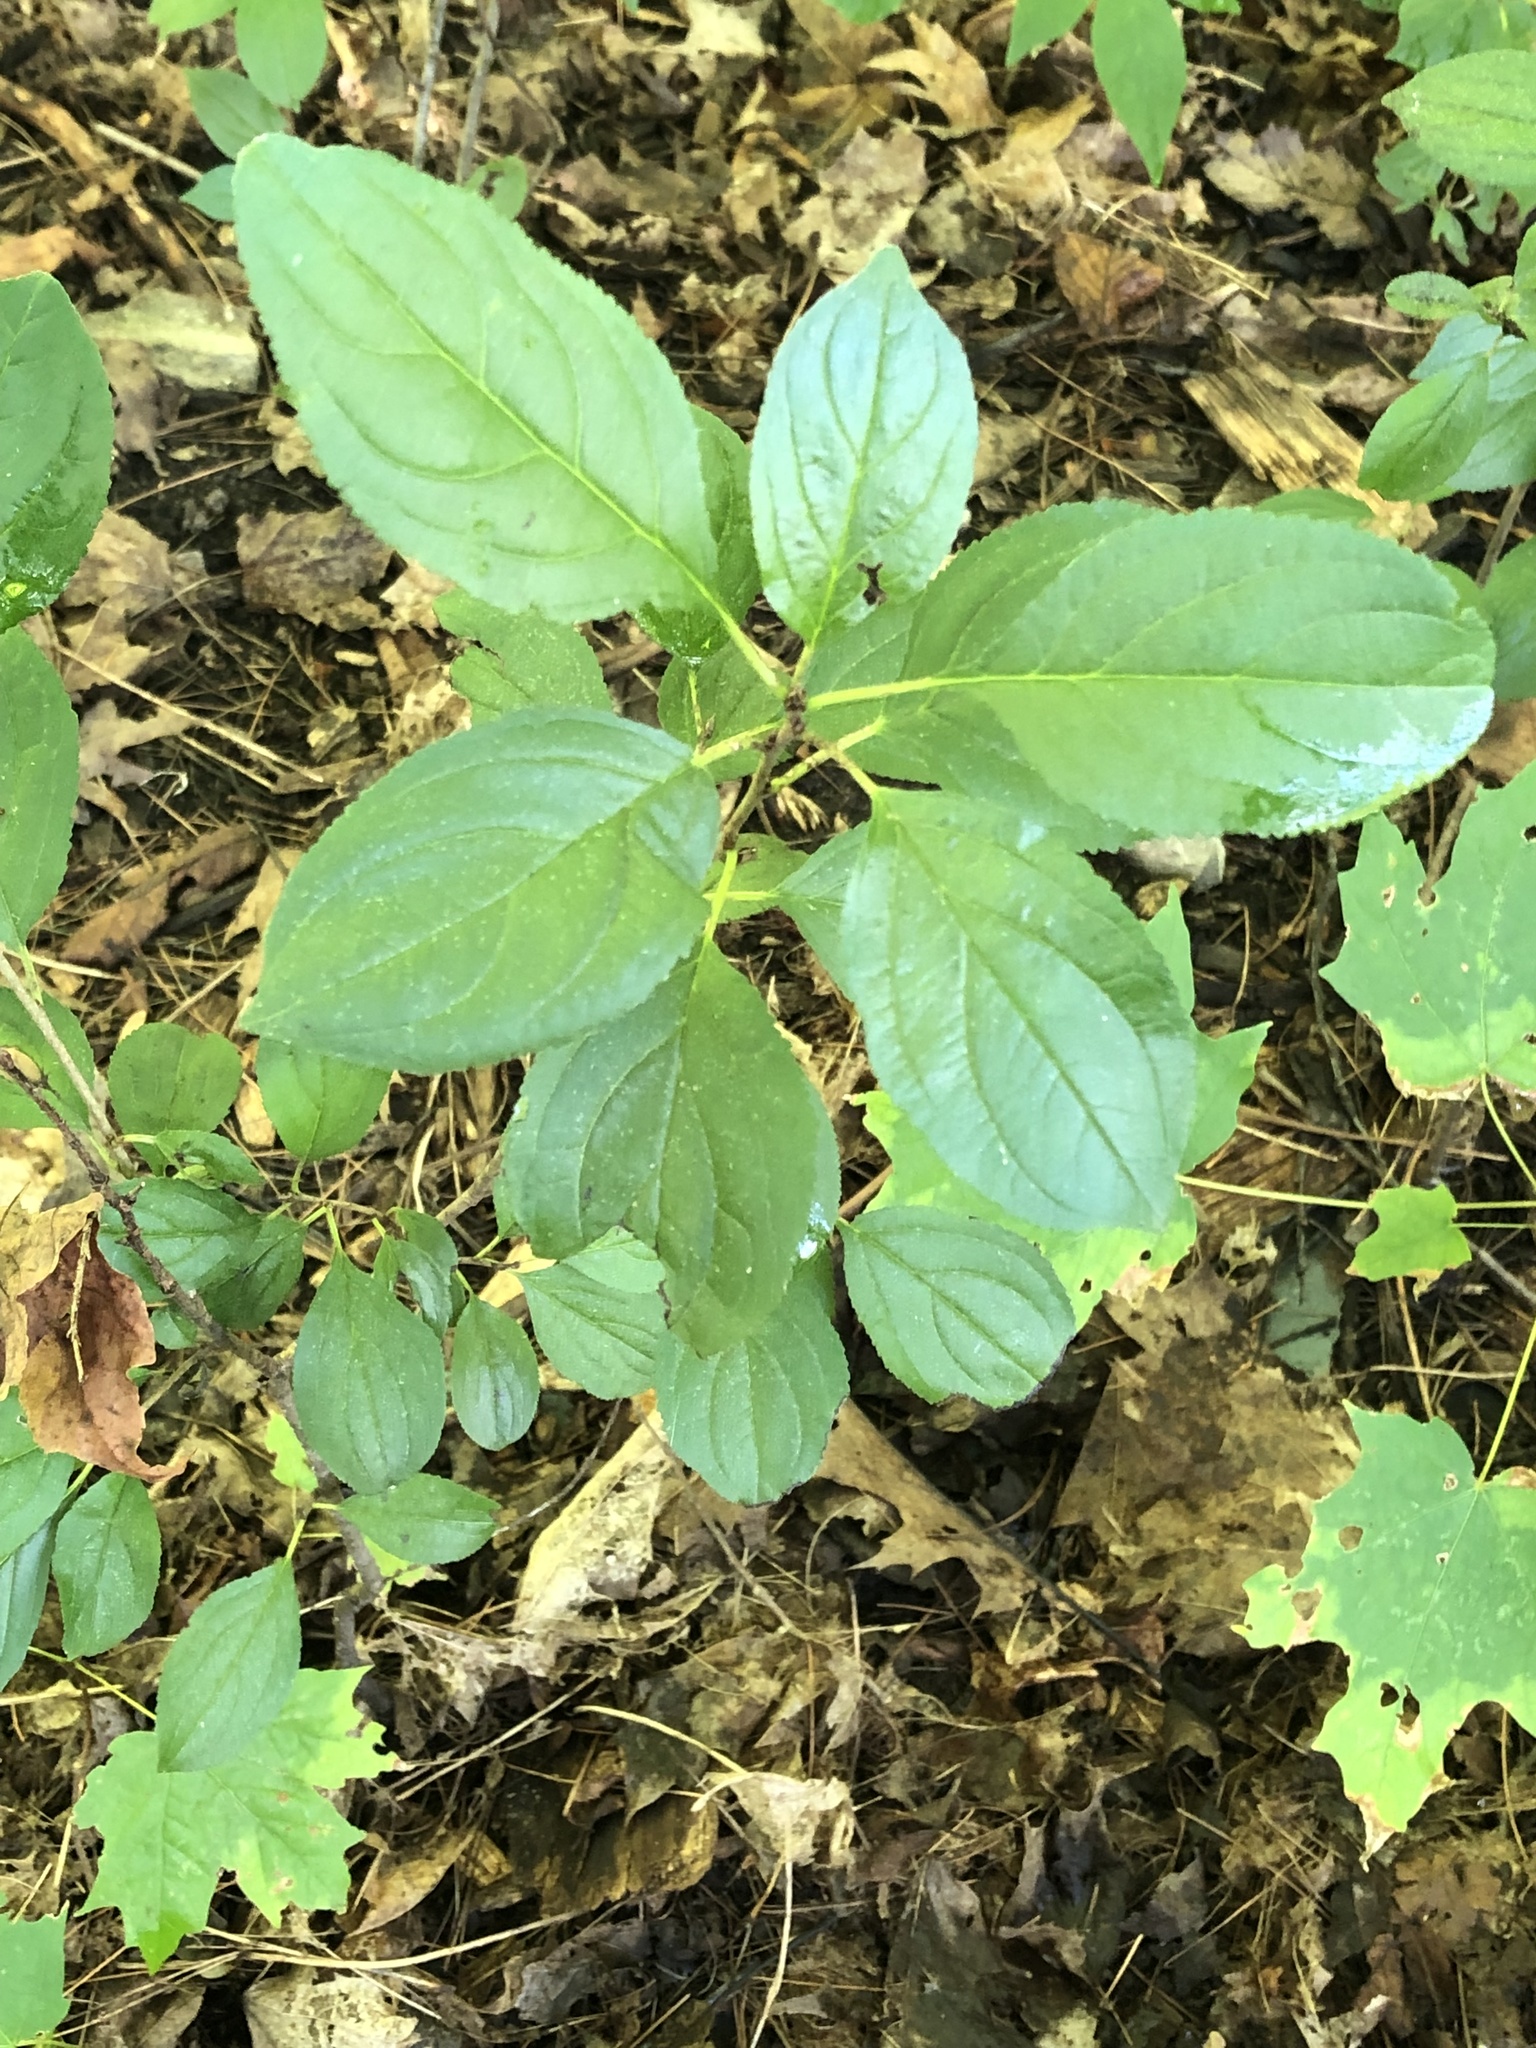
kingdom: Plantae
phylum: Tracheophyta
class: Magnoliopsida
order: Rosales
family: Rhamnaceae
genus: Rhamnus
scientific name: Rhamnus cathartica
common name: Common buckthorn
